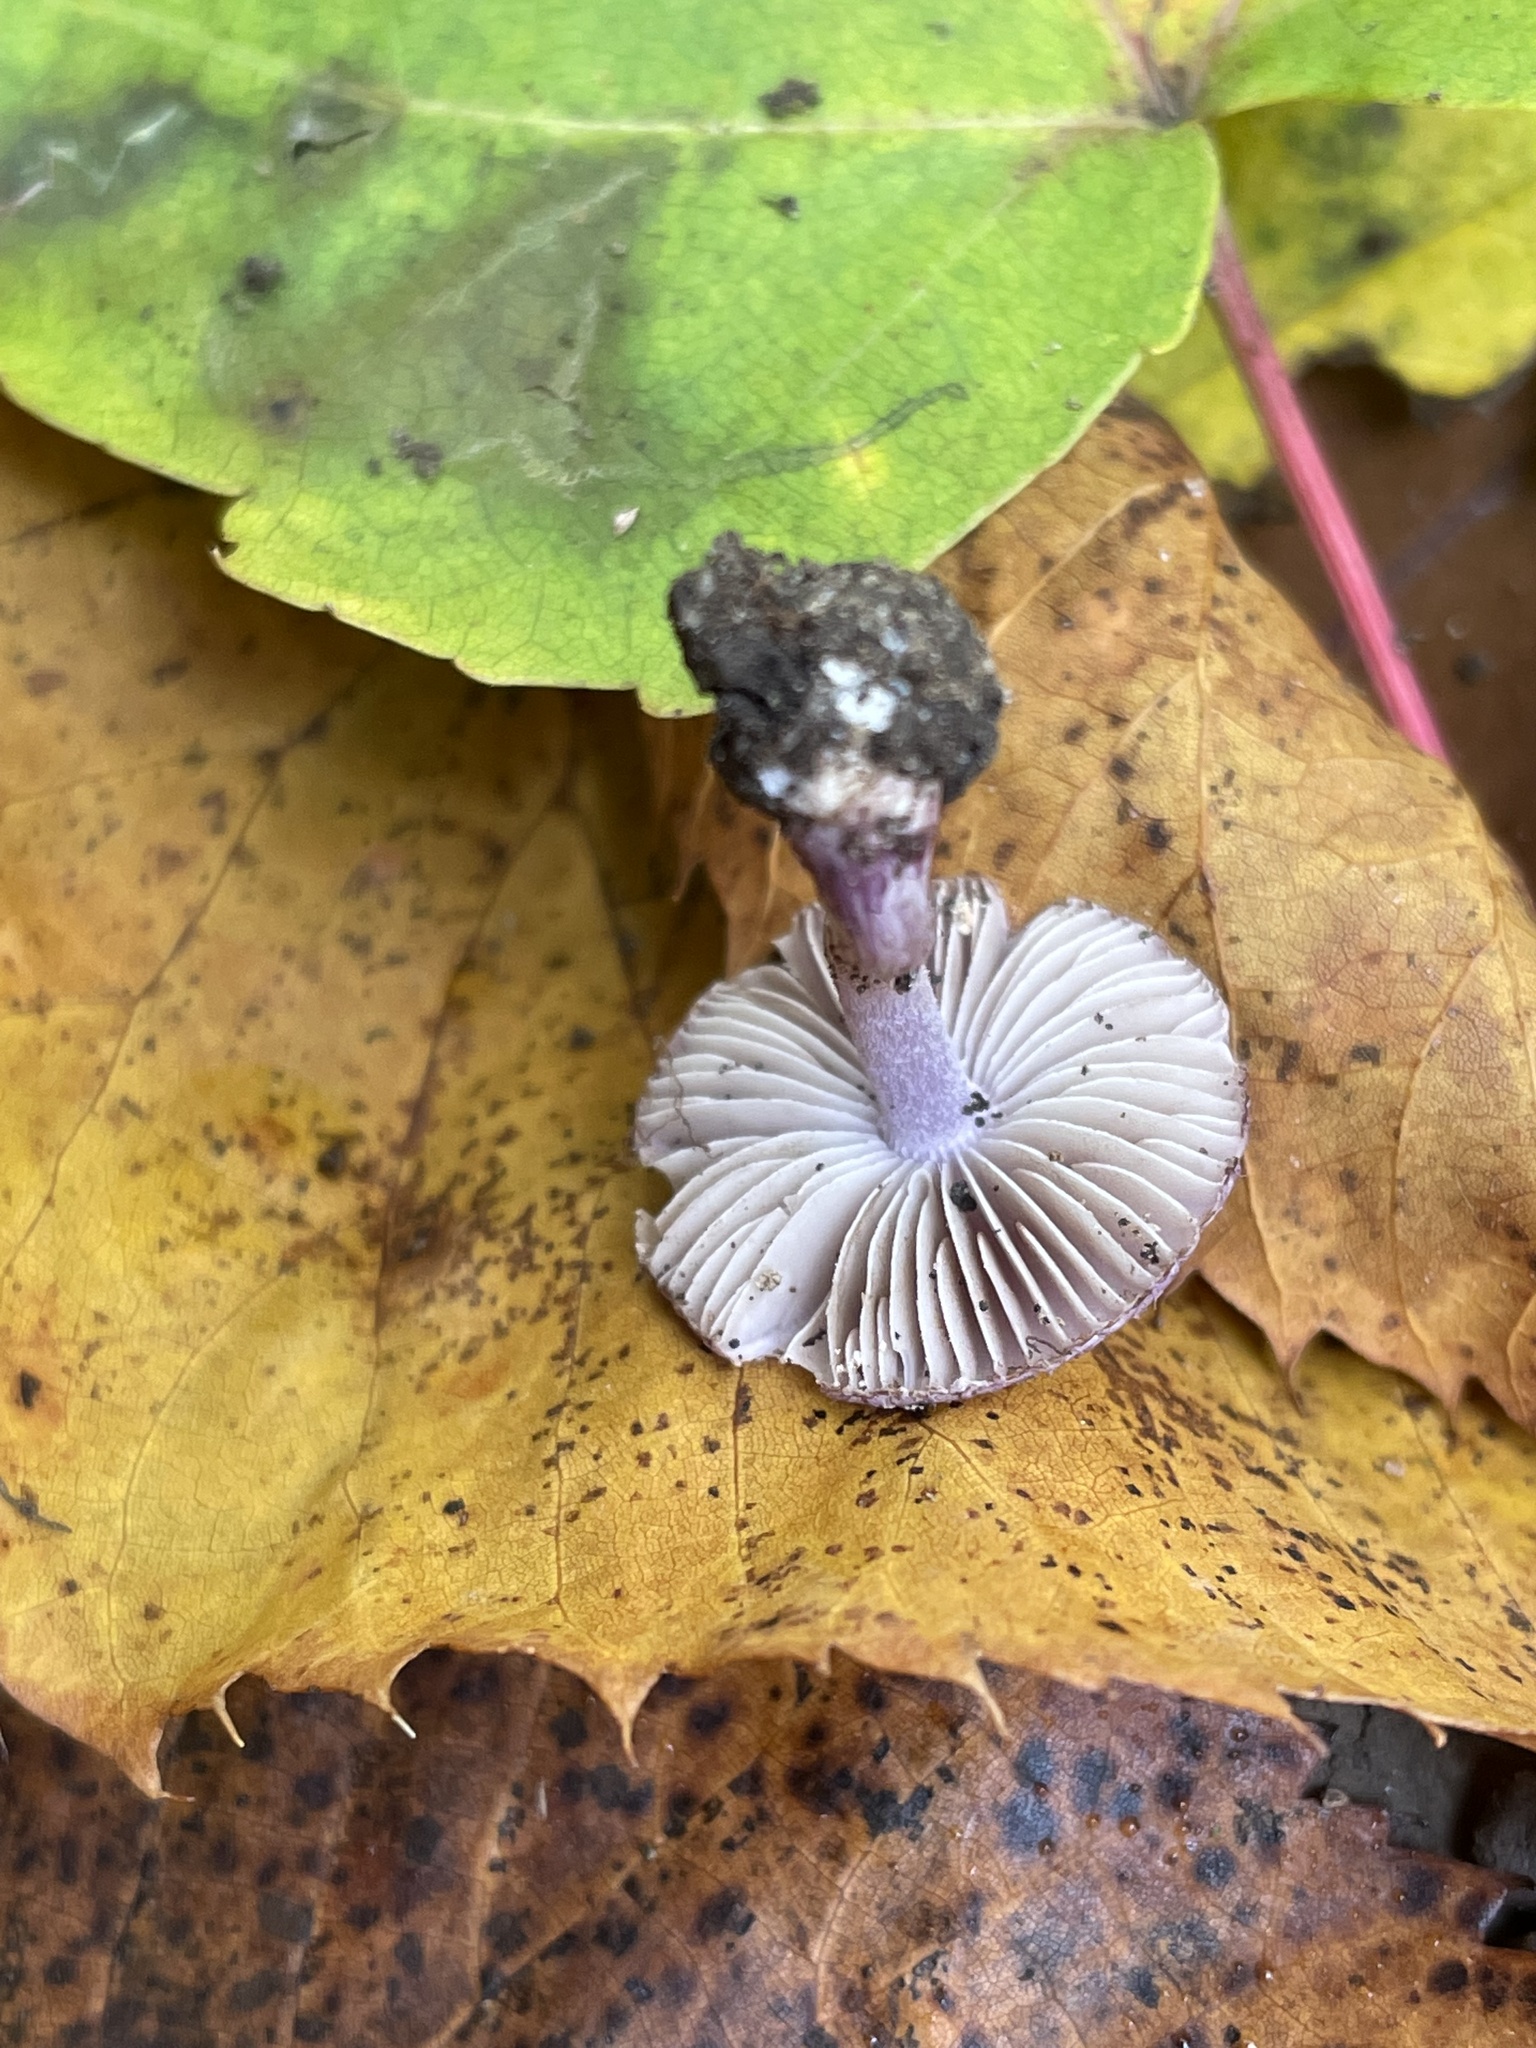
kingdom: Fungi
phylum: Basidiomycota
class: Agaricomycetes
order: Agaricales
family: Inocybaceae
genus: Inocybe
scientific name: Inocybe geophylla
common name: White fibrecap
